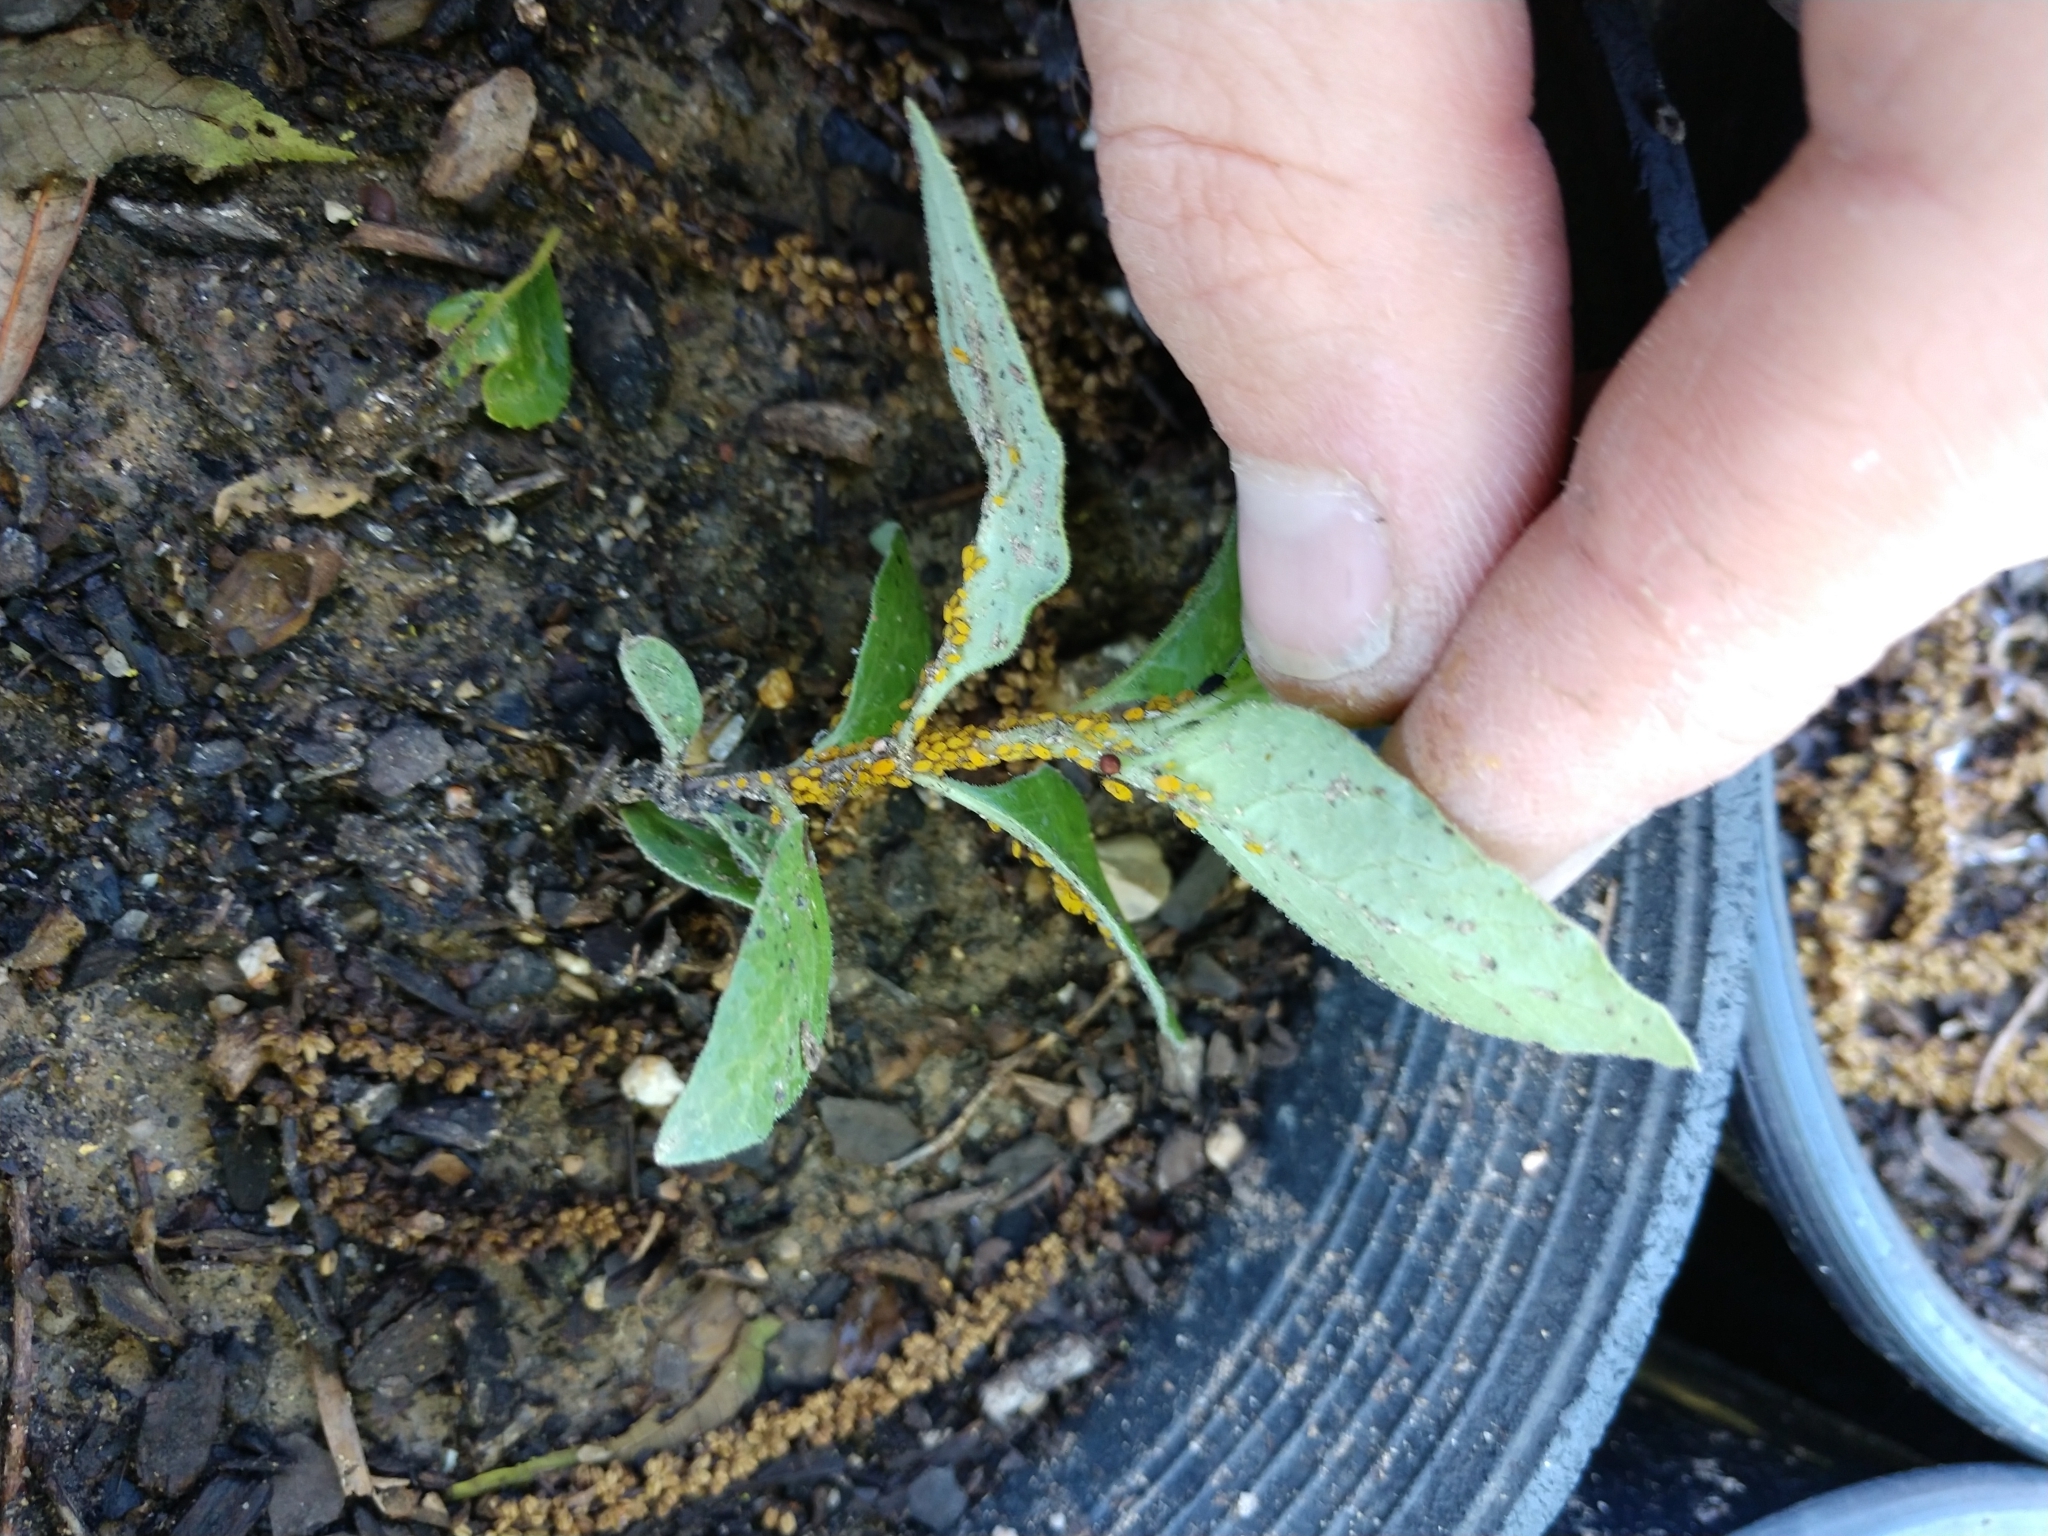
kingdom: Animalia
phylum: Arthropoda
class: Insecta
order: Hemiptera
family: Aphididae
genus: Aphis
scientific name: Aphis nerii
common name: Oleander aphid
